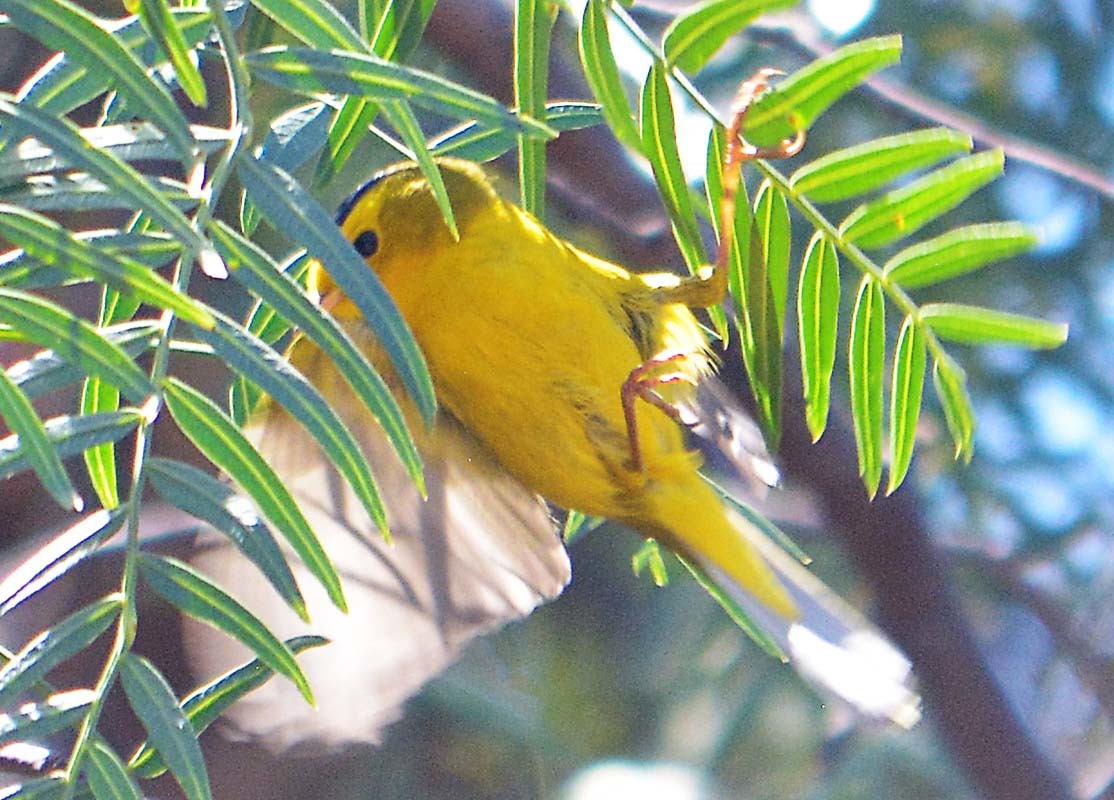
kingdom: Animalia
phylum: Chordata
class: Aves
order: Passeriformes
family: Parulidae
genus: Cardellina
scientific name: Cardellina pusilla
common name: Wilson's warbler
